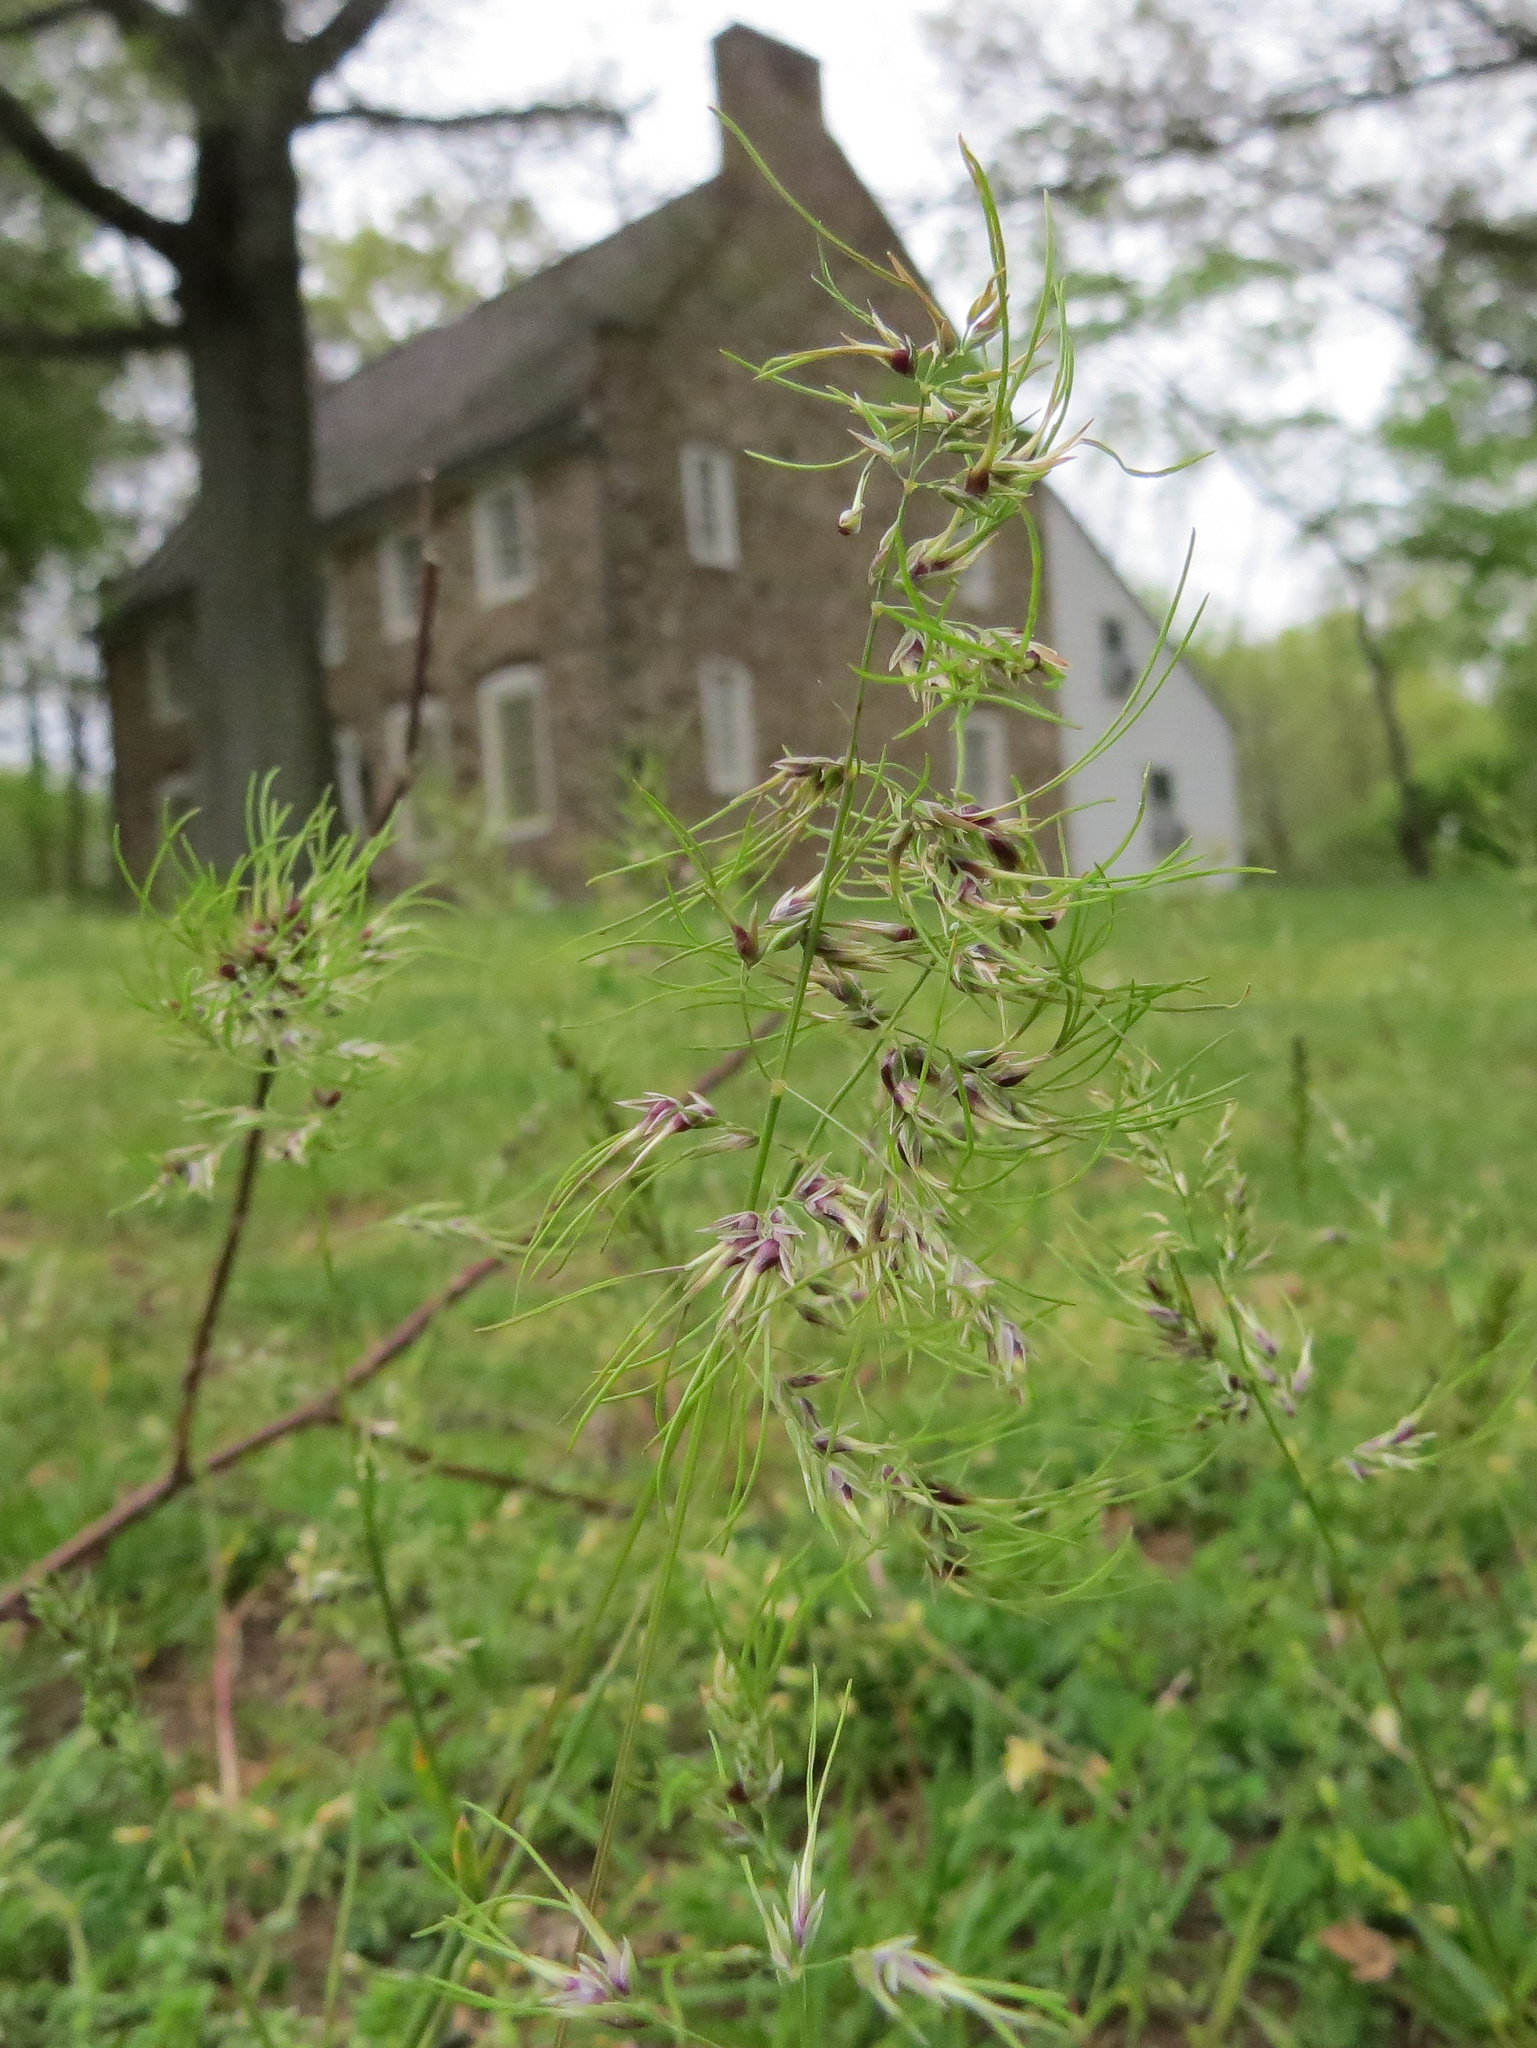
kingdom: Plantae
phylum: Tracheophyta
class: Liliopsida
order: Poales
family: Poaceae
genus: Poa
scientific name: Poa bulbosa
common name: Bulbous bluegrass
